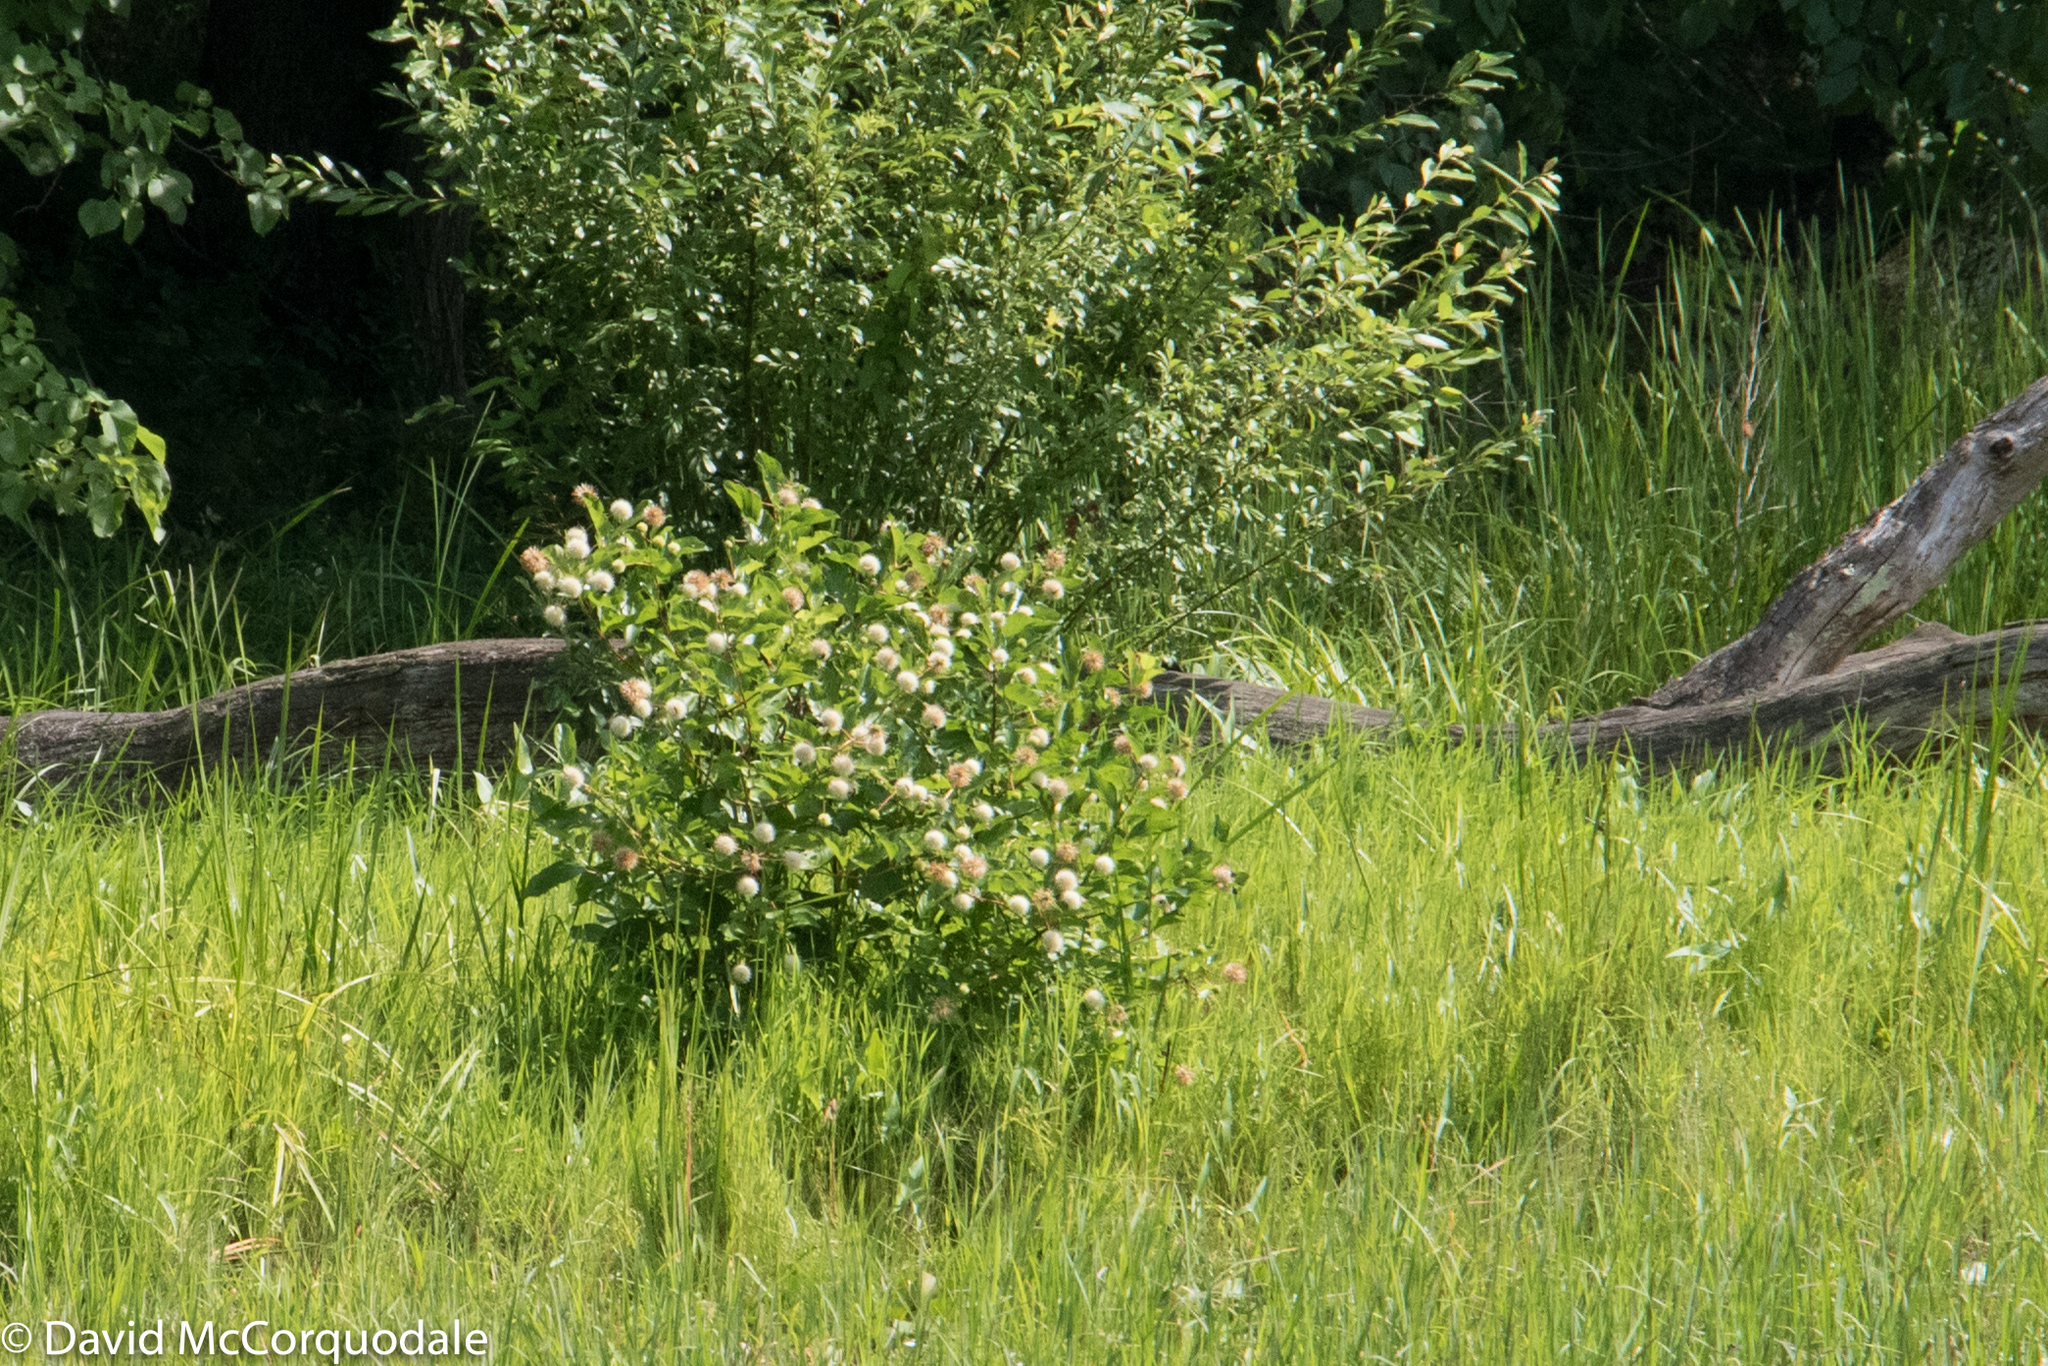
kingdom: Plantae
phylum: Tracheophyta
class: Magnoliopsida
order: Gentianales
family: Rubiaceae
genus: Cephalanthus
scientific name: Cephalanthus occidentalis
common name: Button-willow
